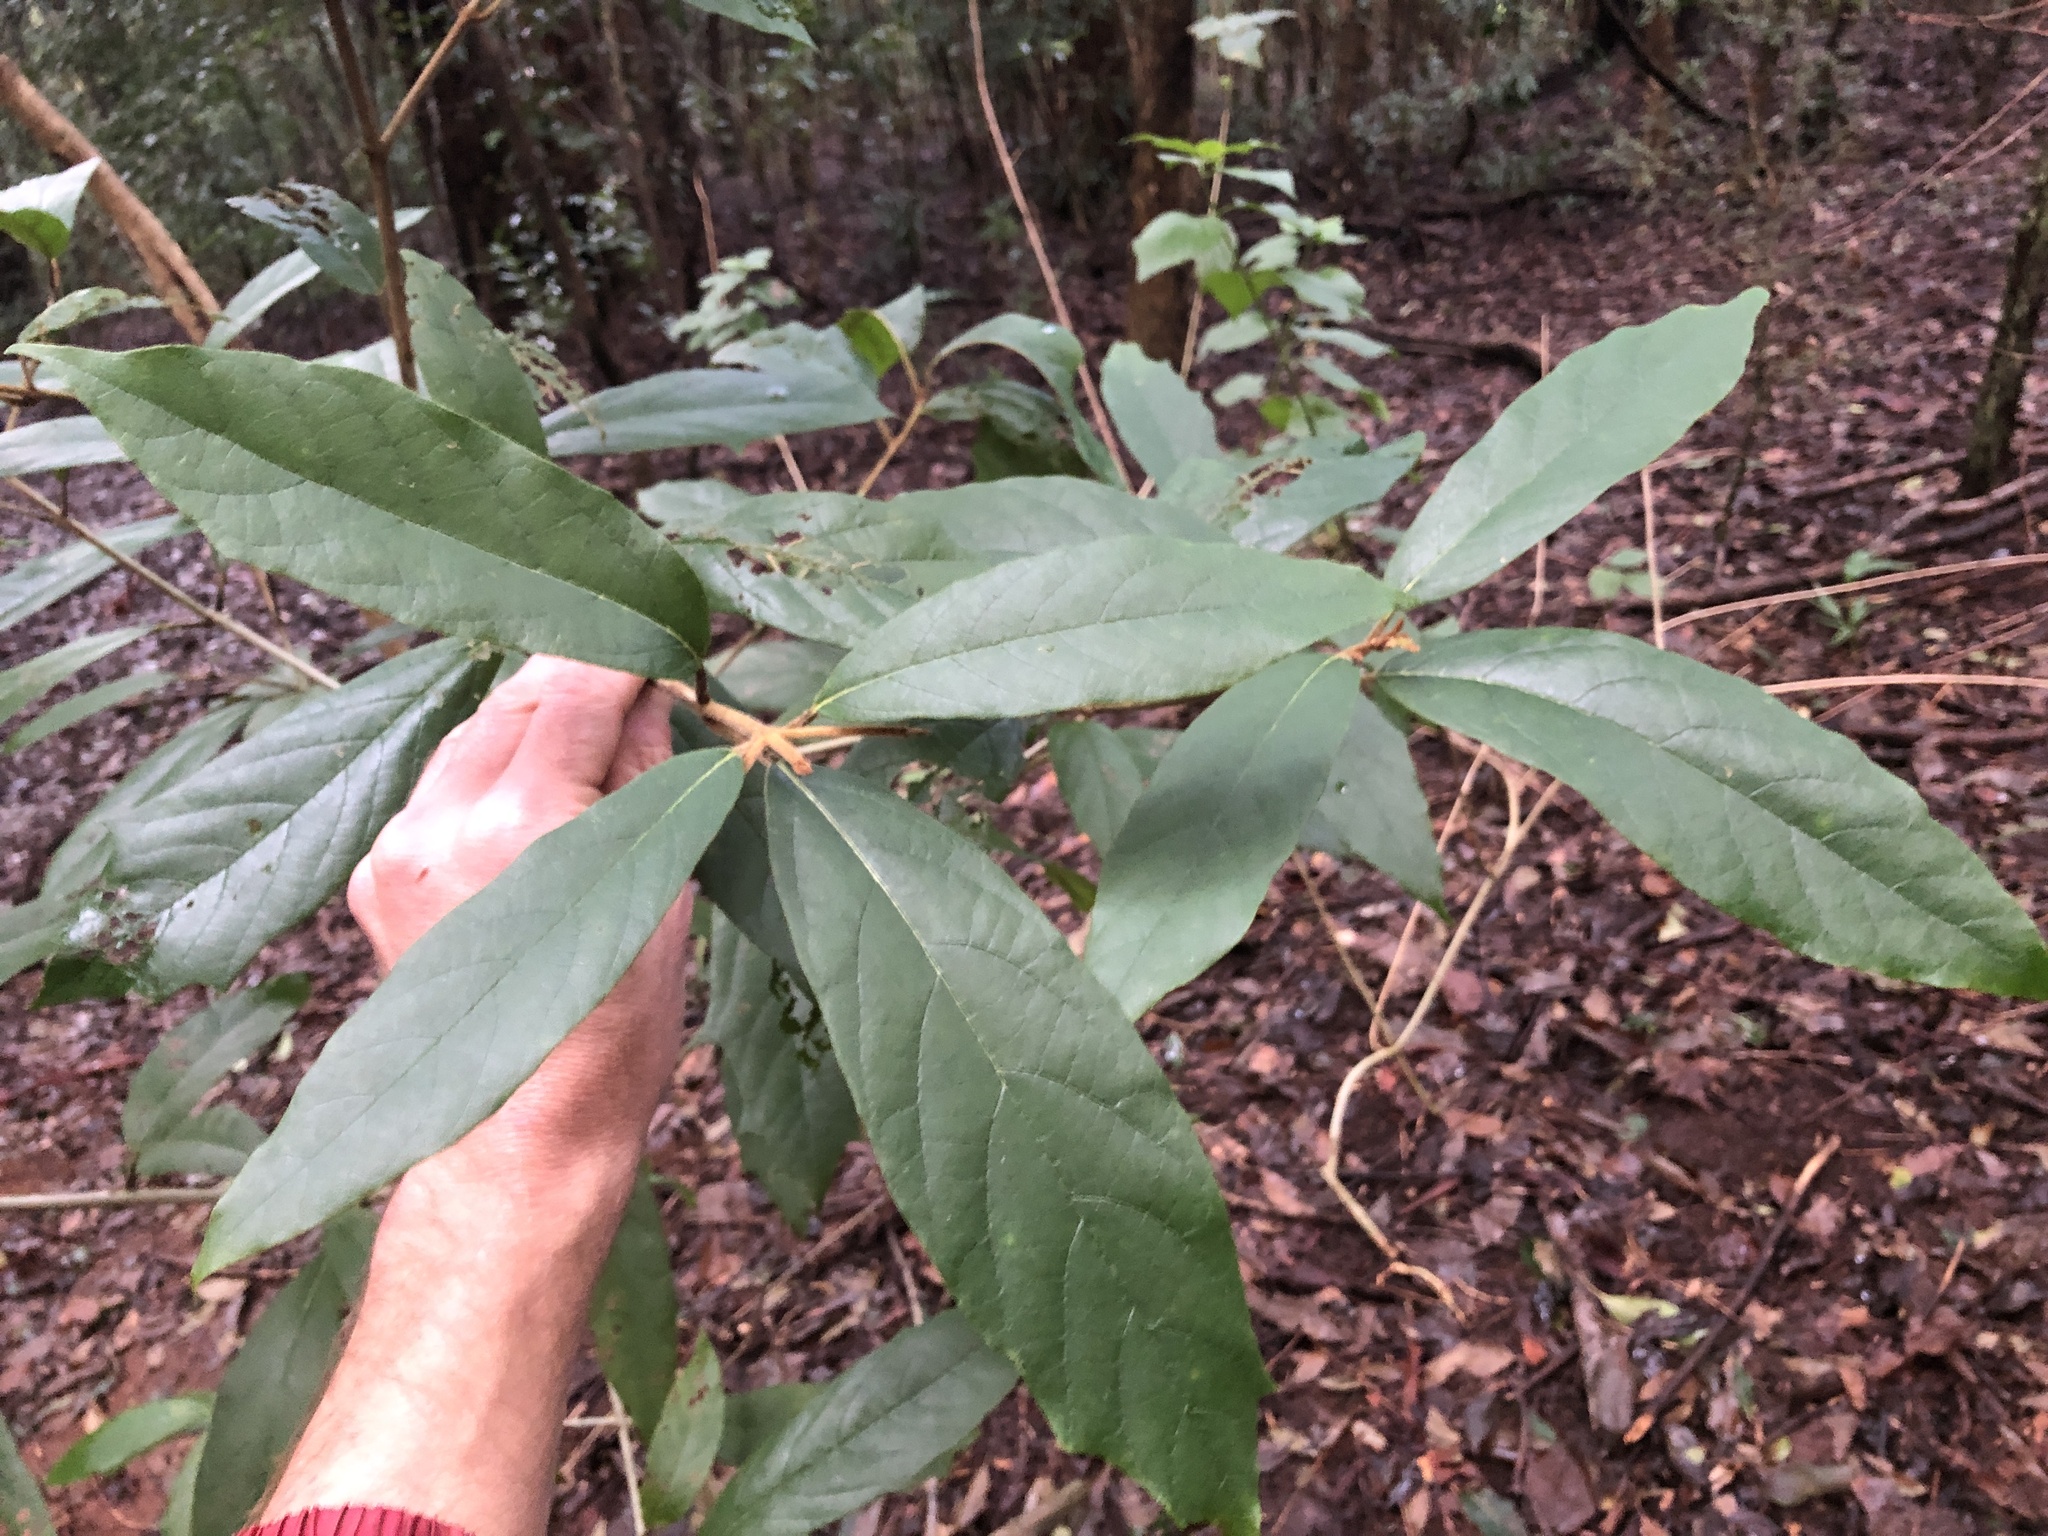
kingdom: Plantae
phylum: Tracheophyta
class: Magnoliopsida
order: Lamiales
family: Lamiaceae
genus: Gmelina
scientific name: Gmelina leichhardtii
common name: Queensland-beech
